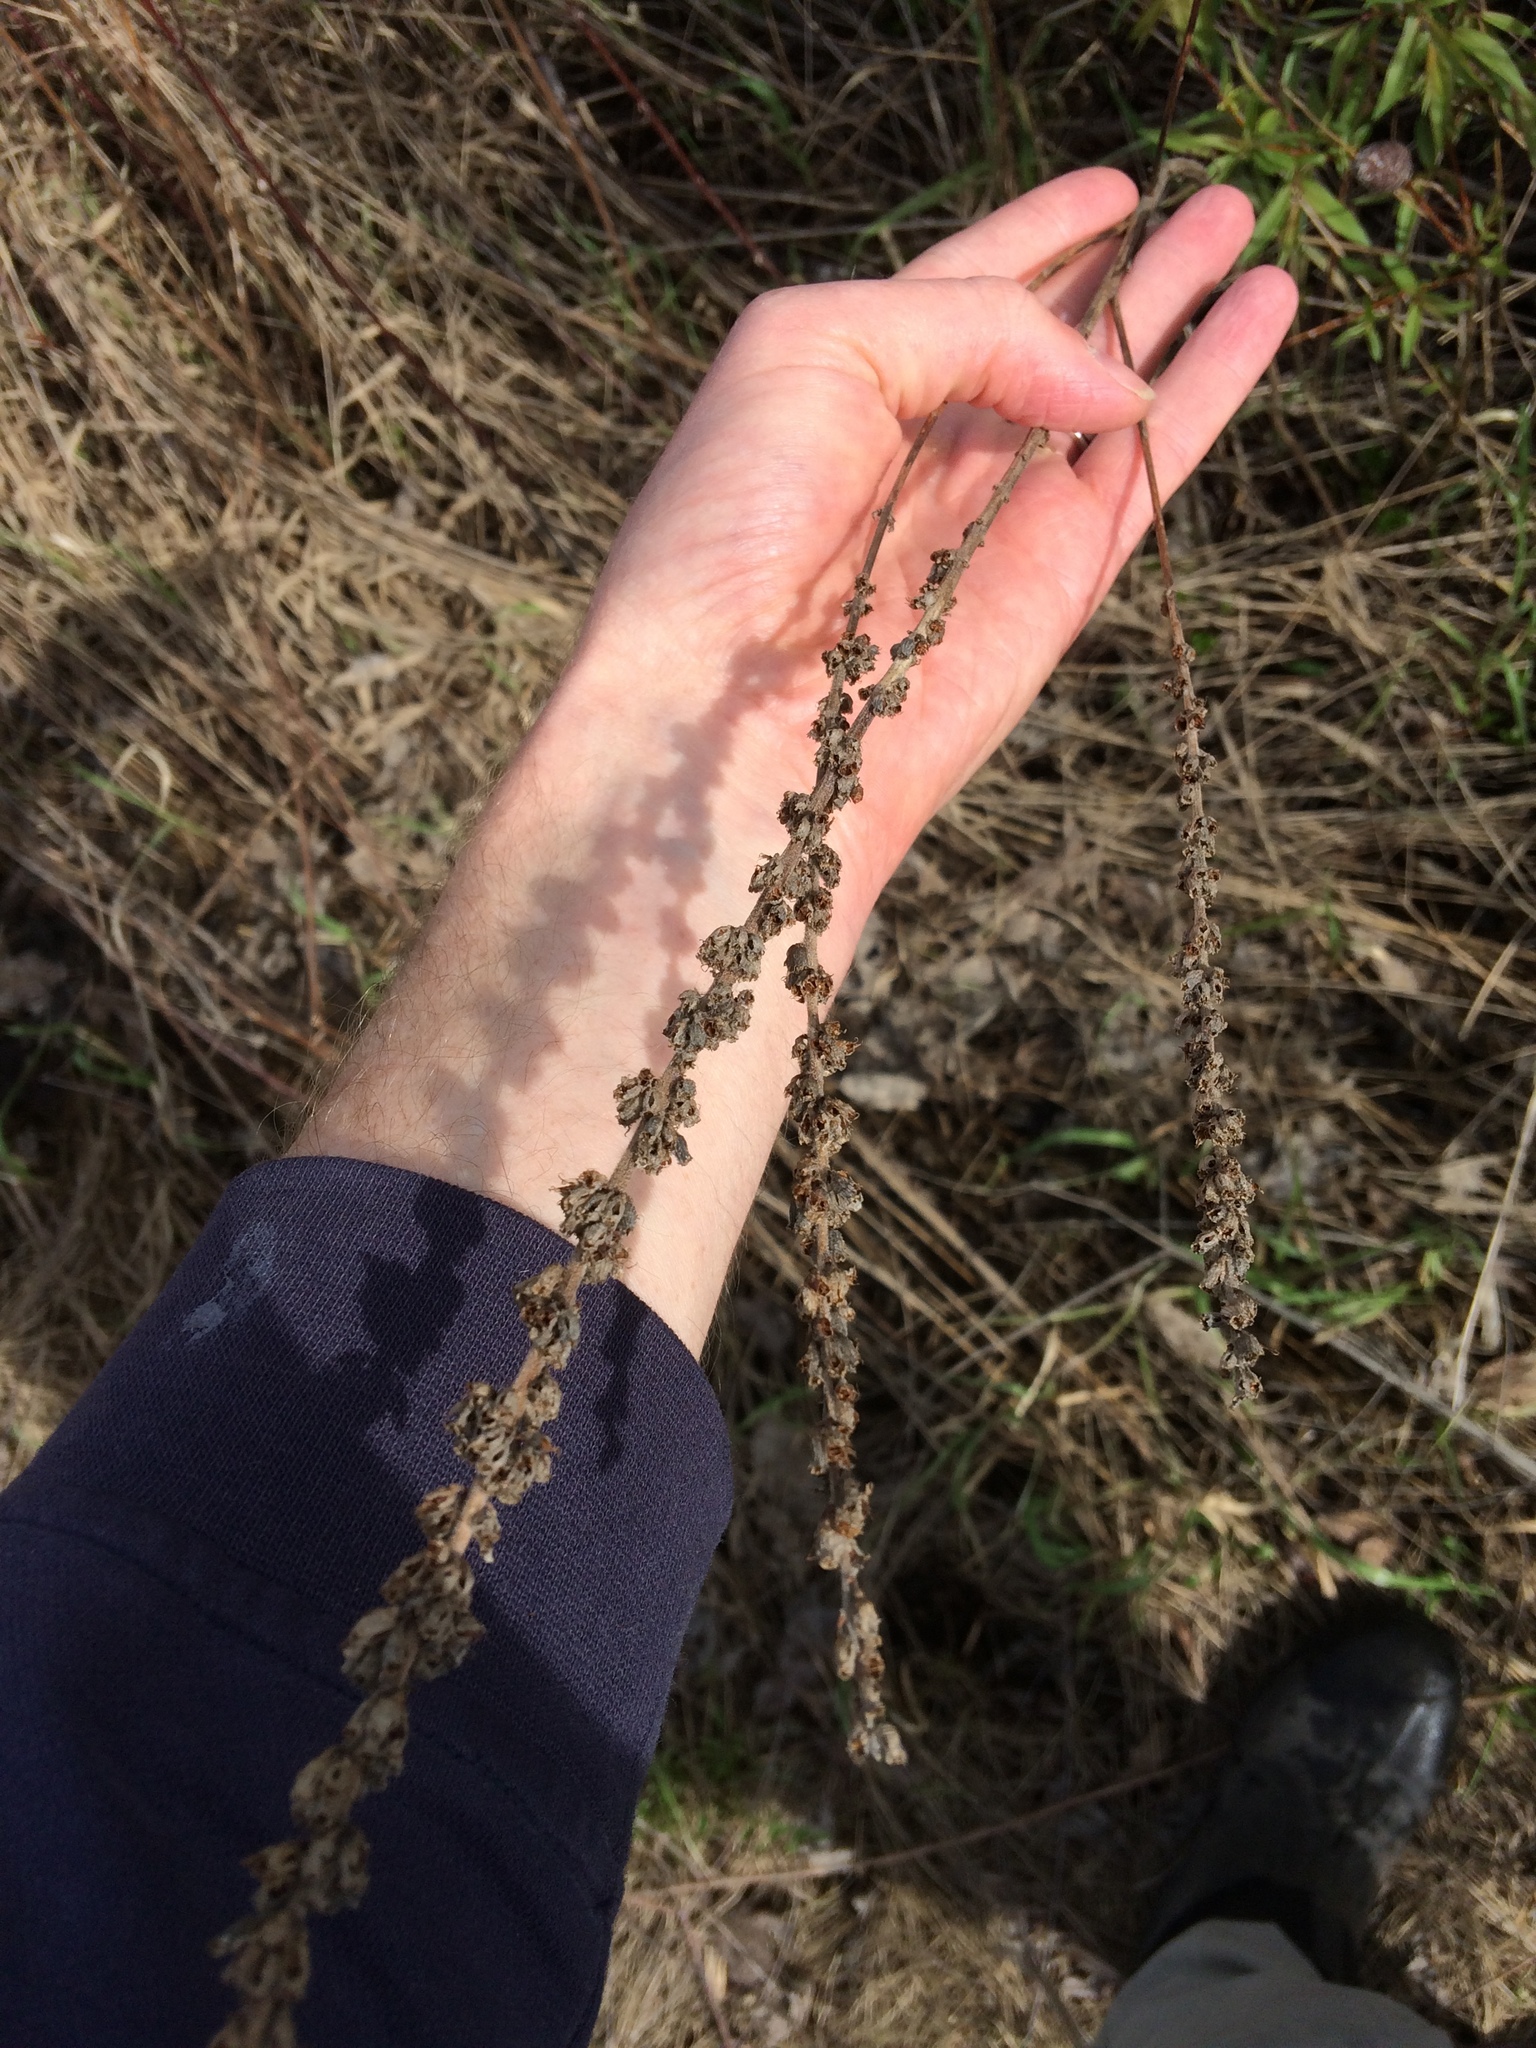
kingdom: Plantae
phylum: Tracheophyta
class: Magnoliopsida
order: Myrtales
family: Lythraceae
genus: Lythrum
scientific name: Lythrum salicaria
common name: Purple loosestrife
